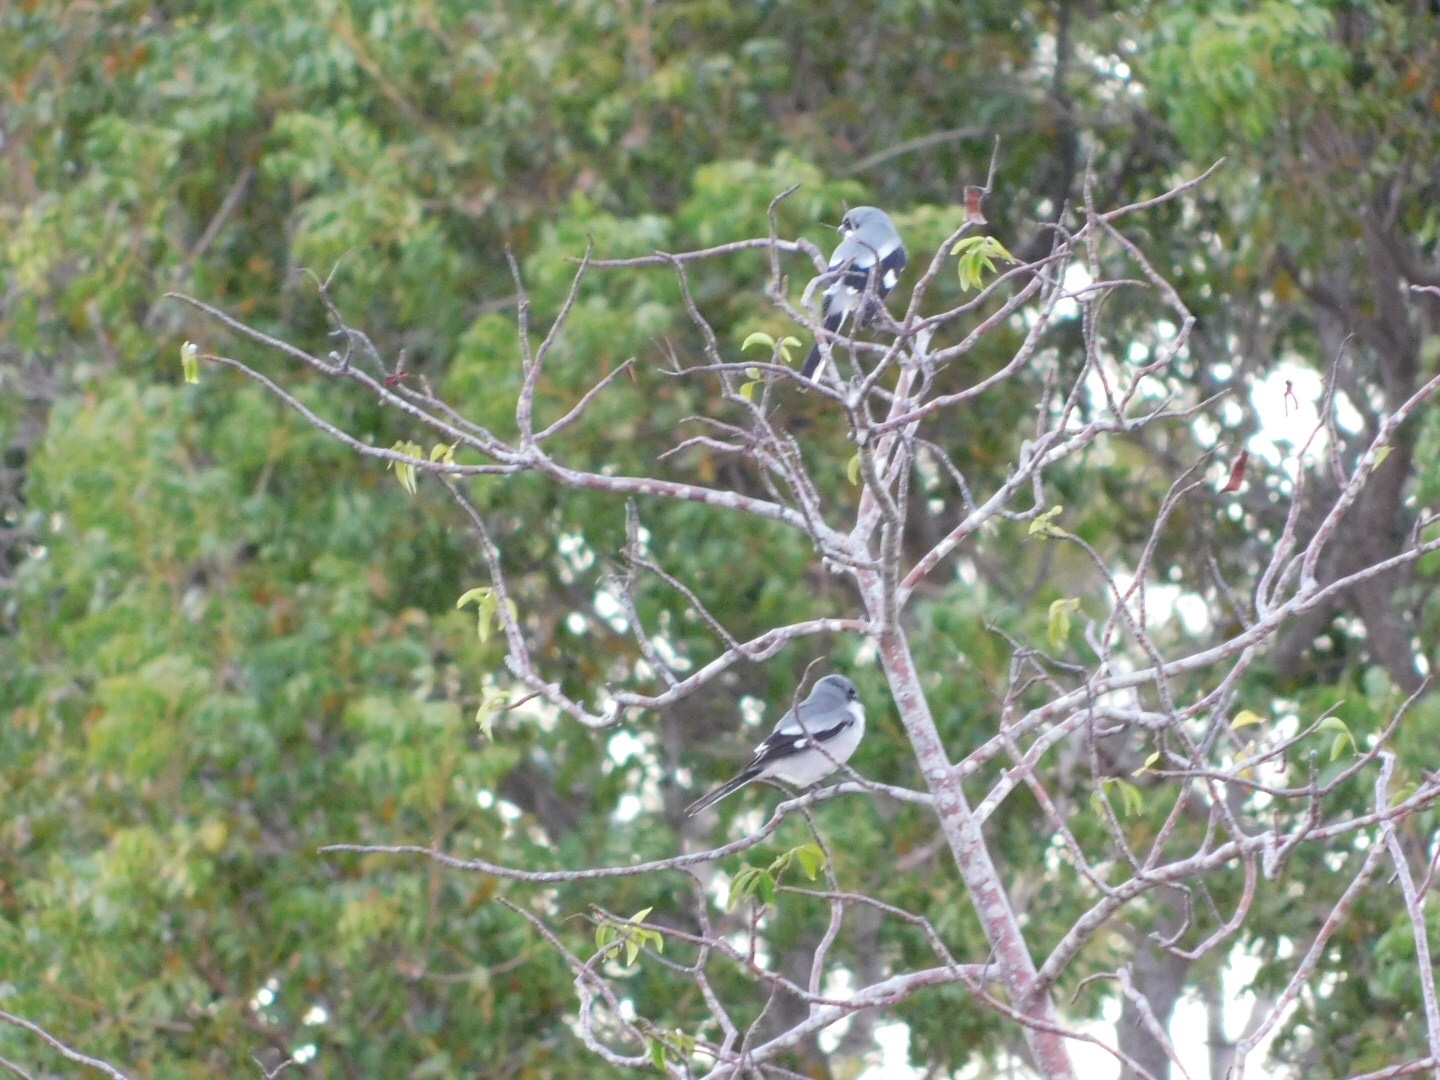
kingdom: Animalia
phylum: Chordata
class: Aves
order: Passeriformes
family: Laniidae
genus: Lanius
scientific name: Lanius ludovicianus
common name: Loggerhead shrike
